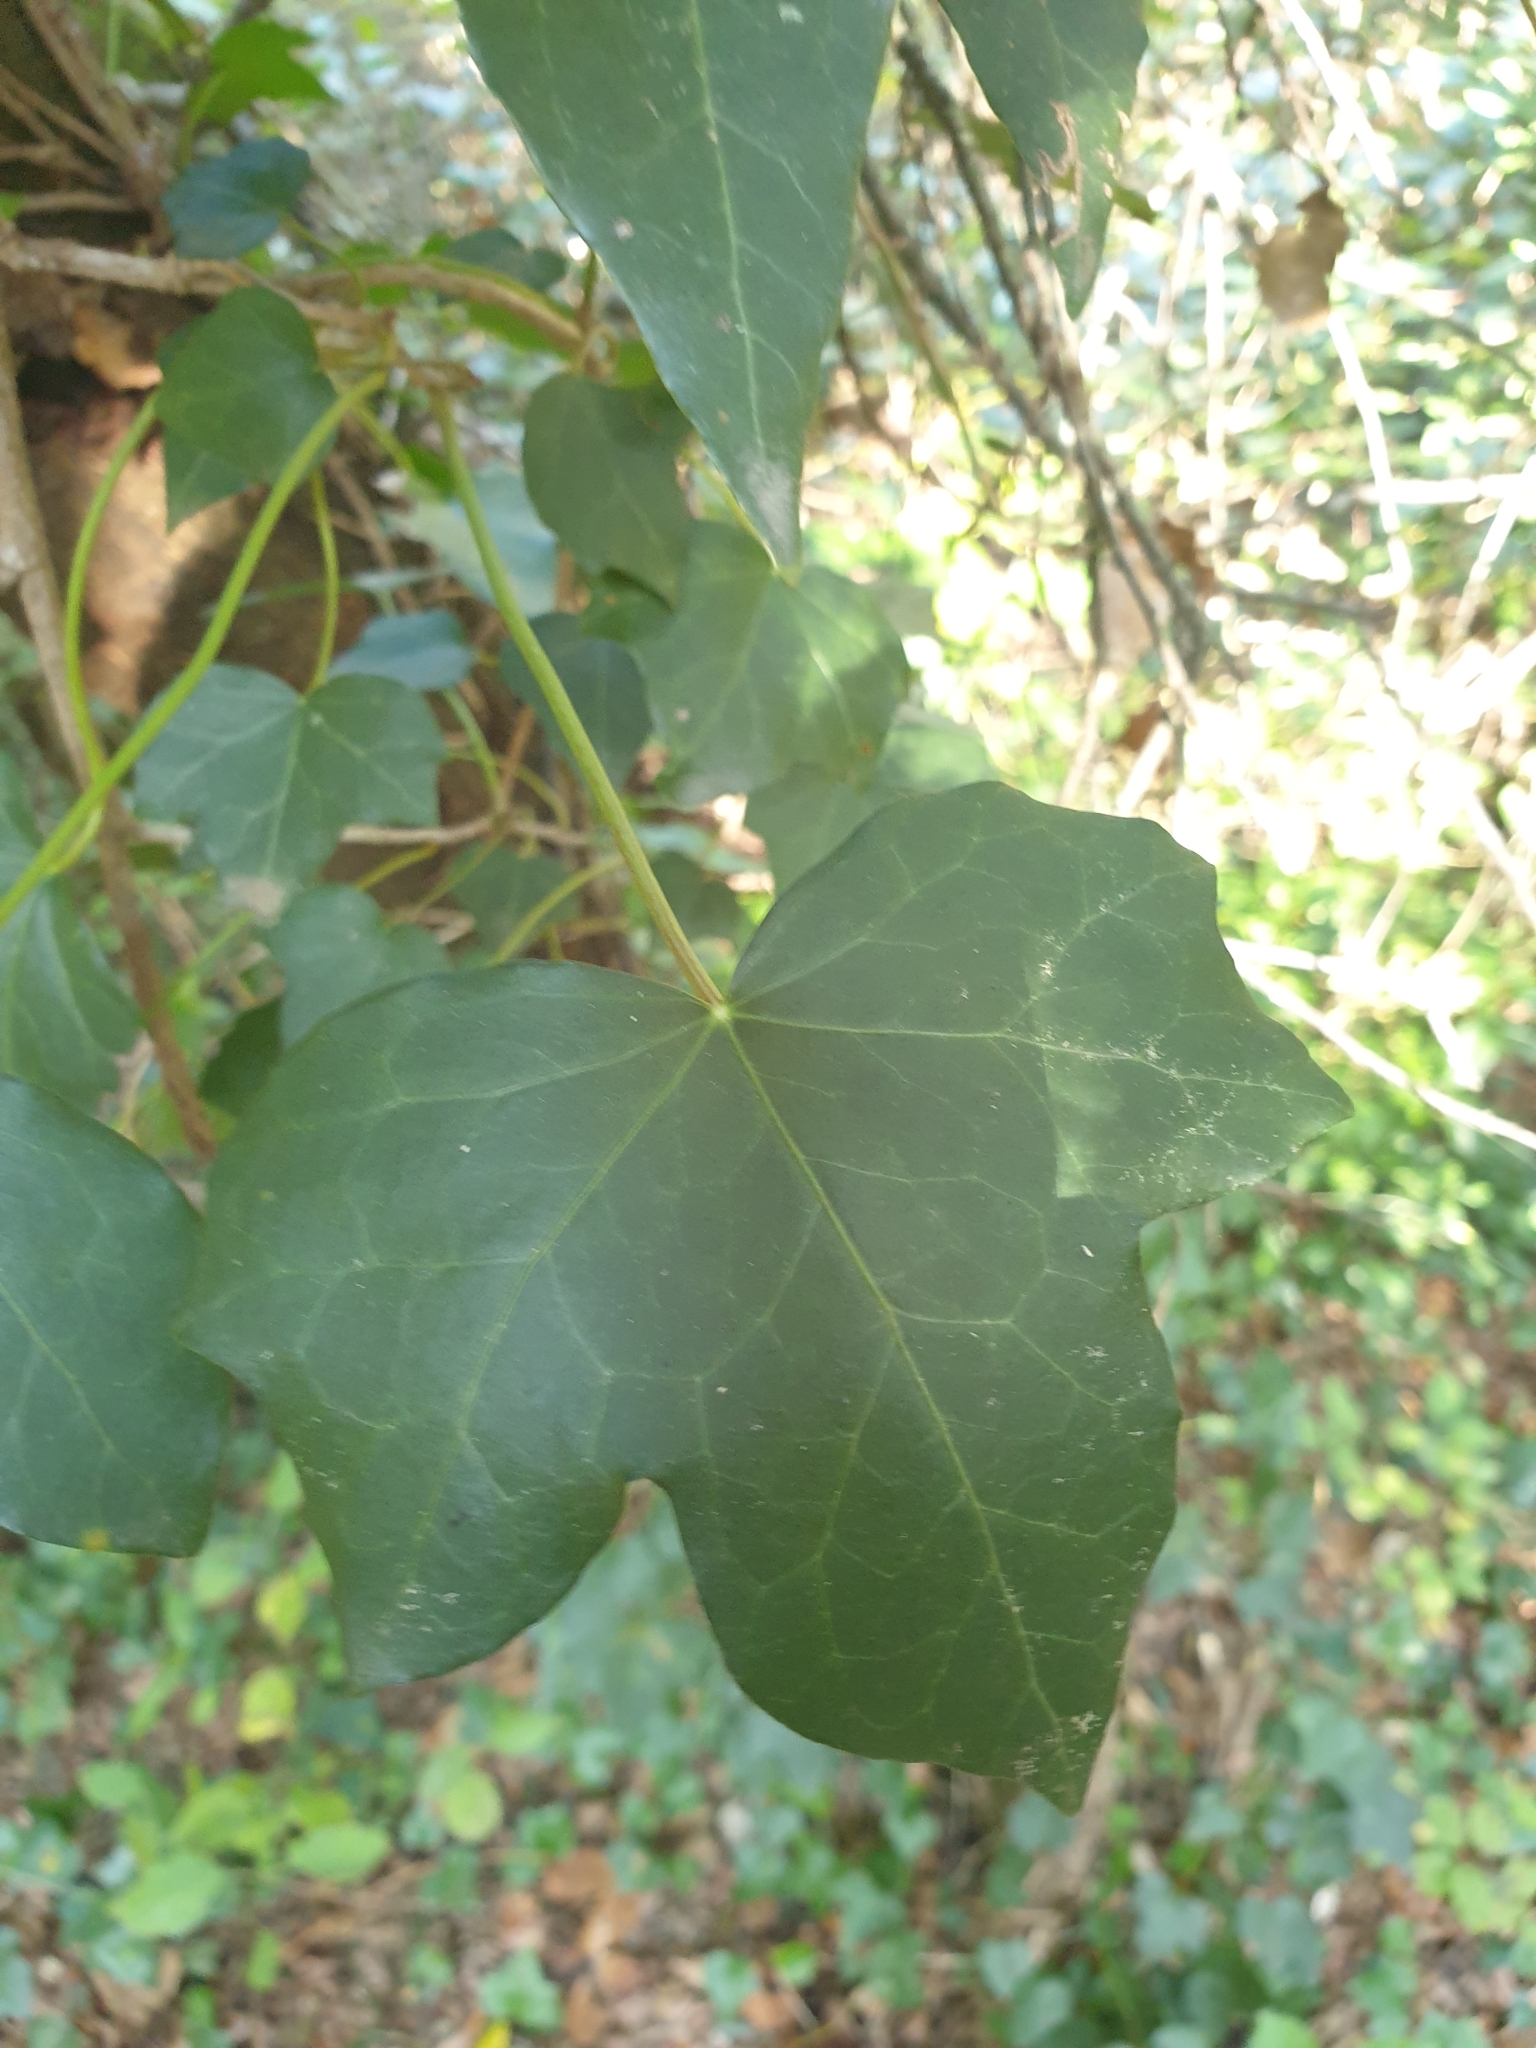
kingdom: Plantae
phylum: Tracheophyta
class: Magnoliopsida
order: Apiales
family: Araliaceae
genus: Hedera
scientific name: Hedera helix
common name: Ivy
